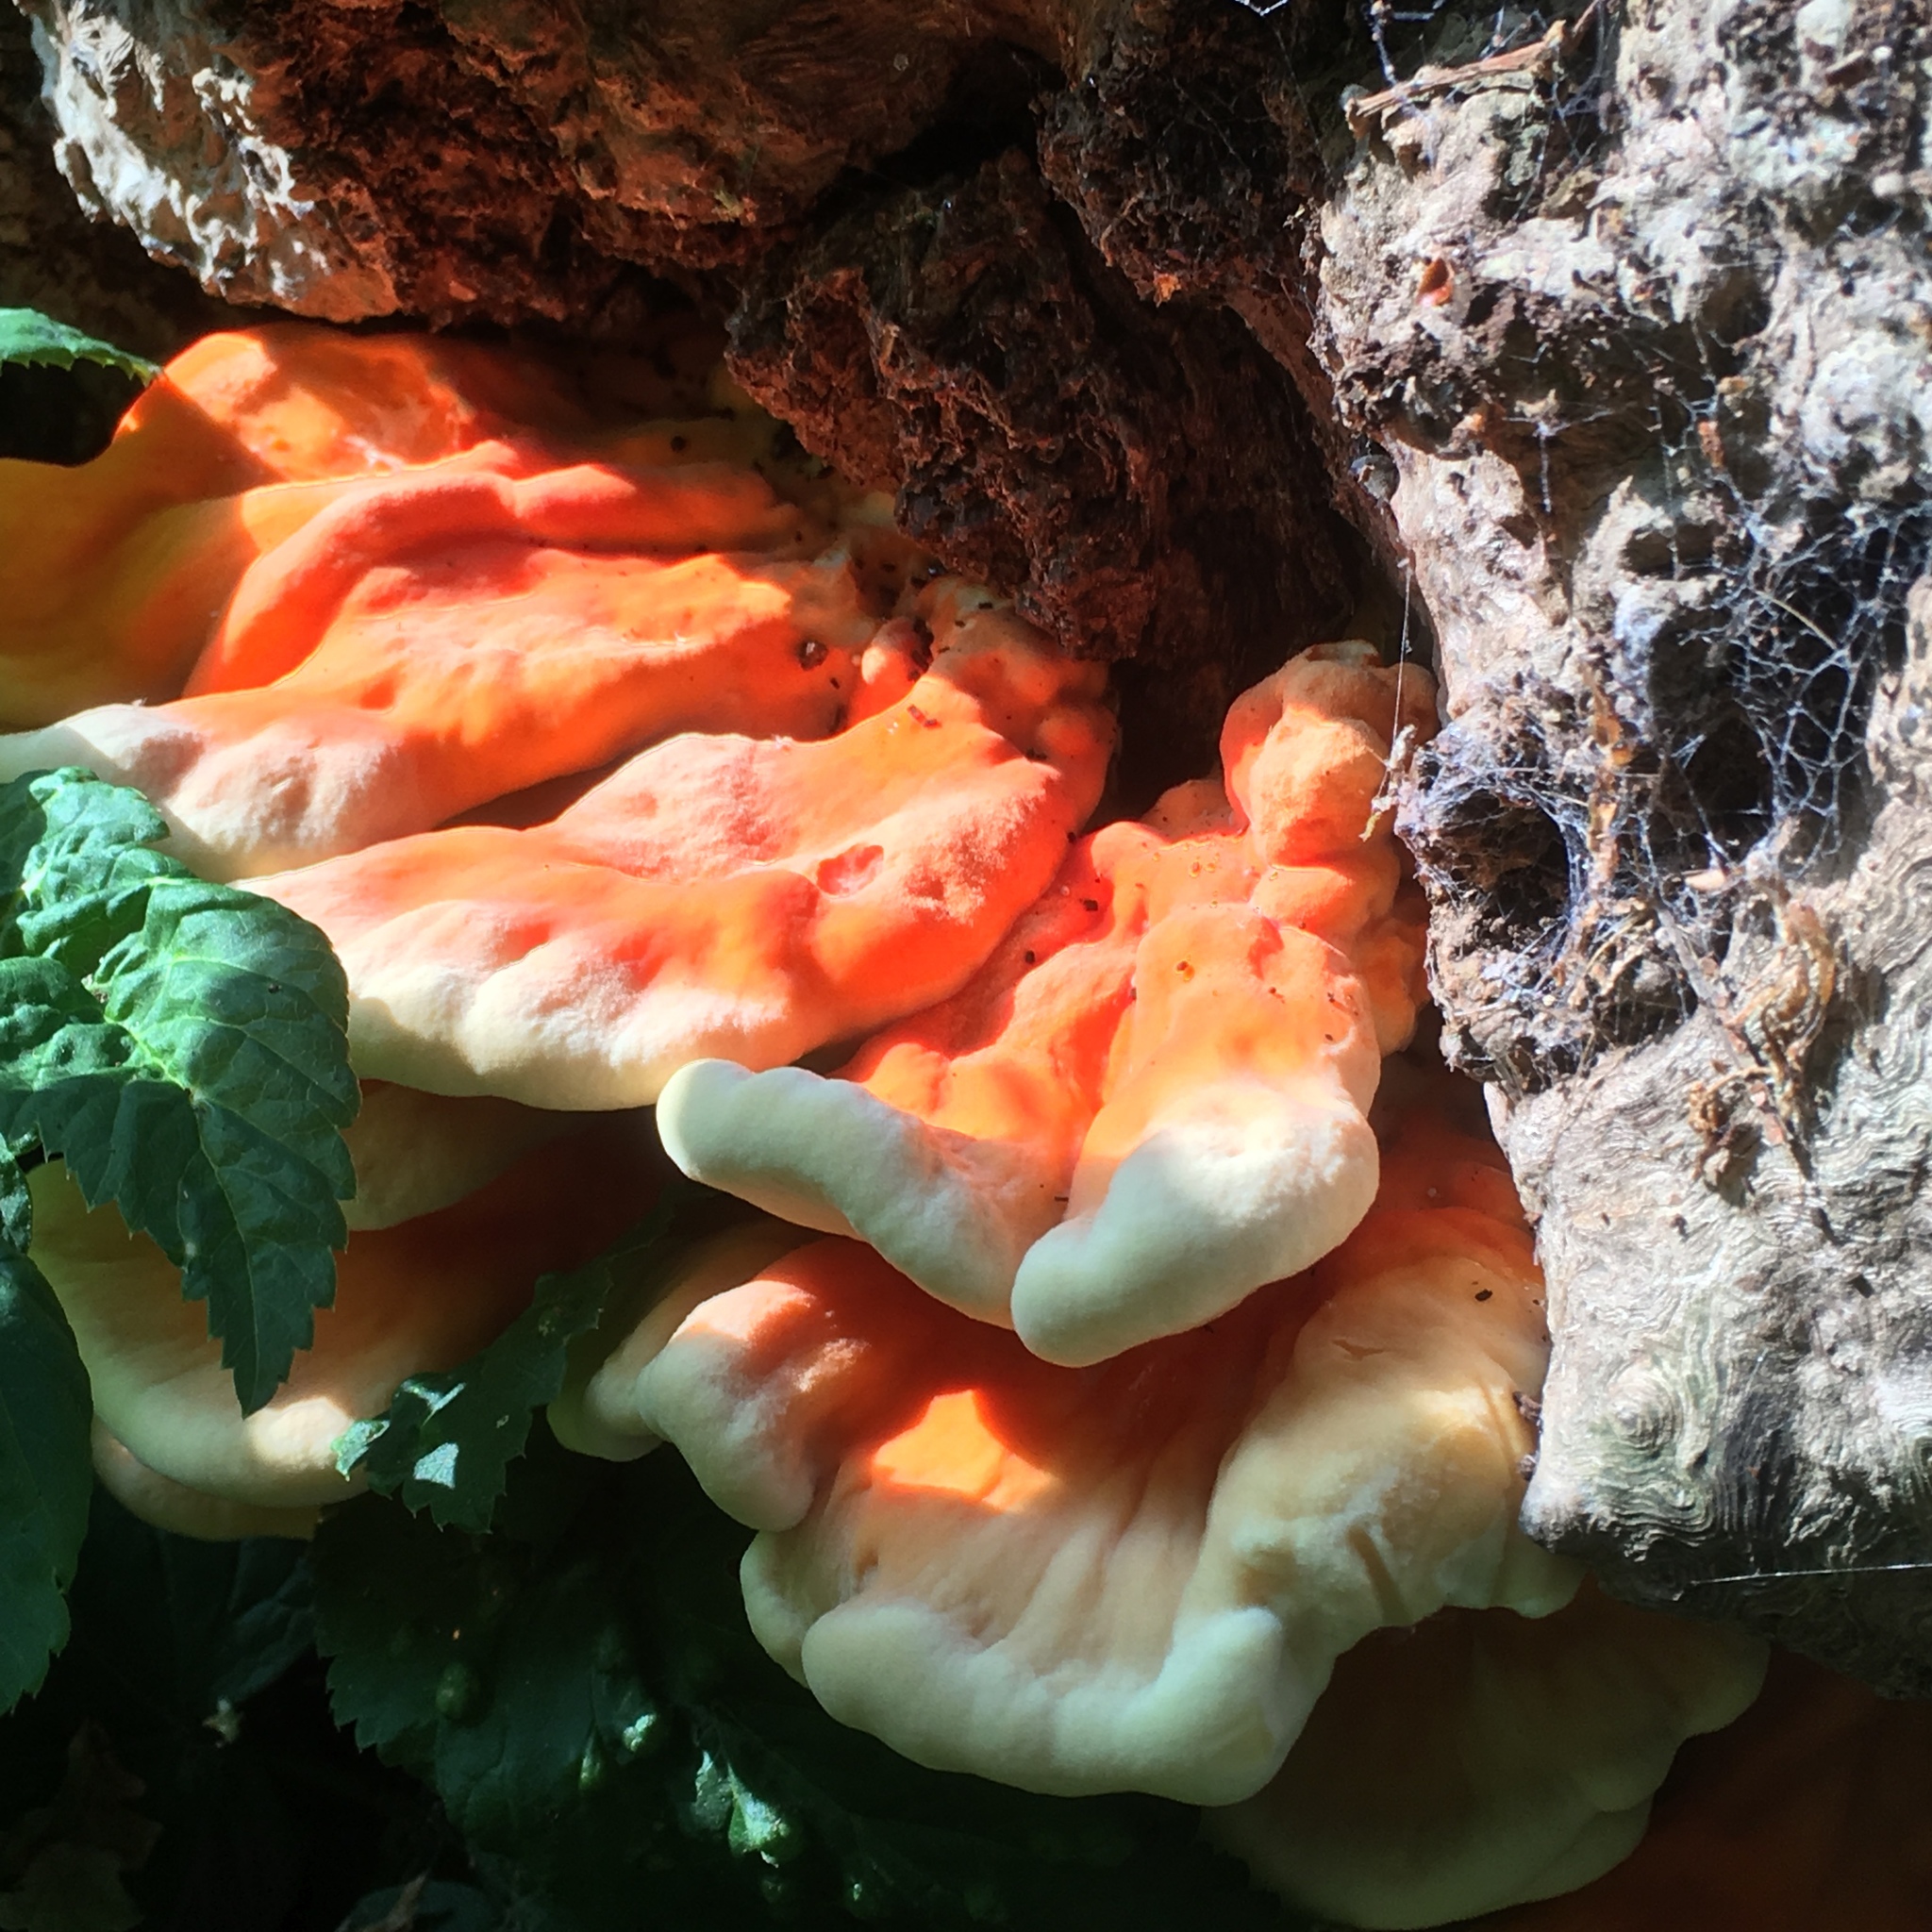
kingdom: Fungi
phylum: Basidiomycota
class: Agaricomycetes
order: Polyporales
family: Laetiporaceae
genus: Laetiporus
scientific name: Laetiporus sulphureus
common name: Chicken of the woods
